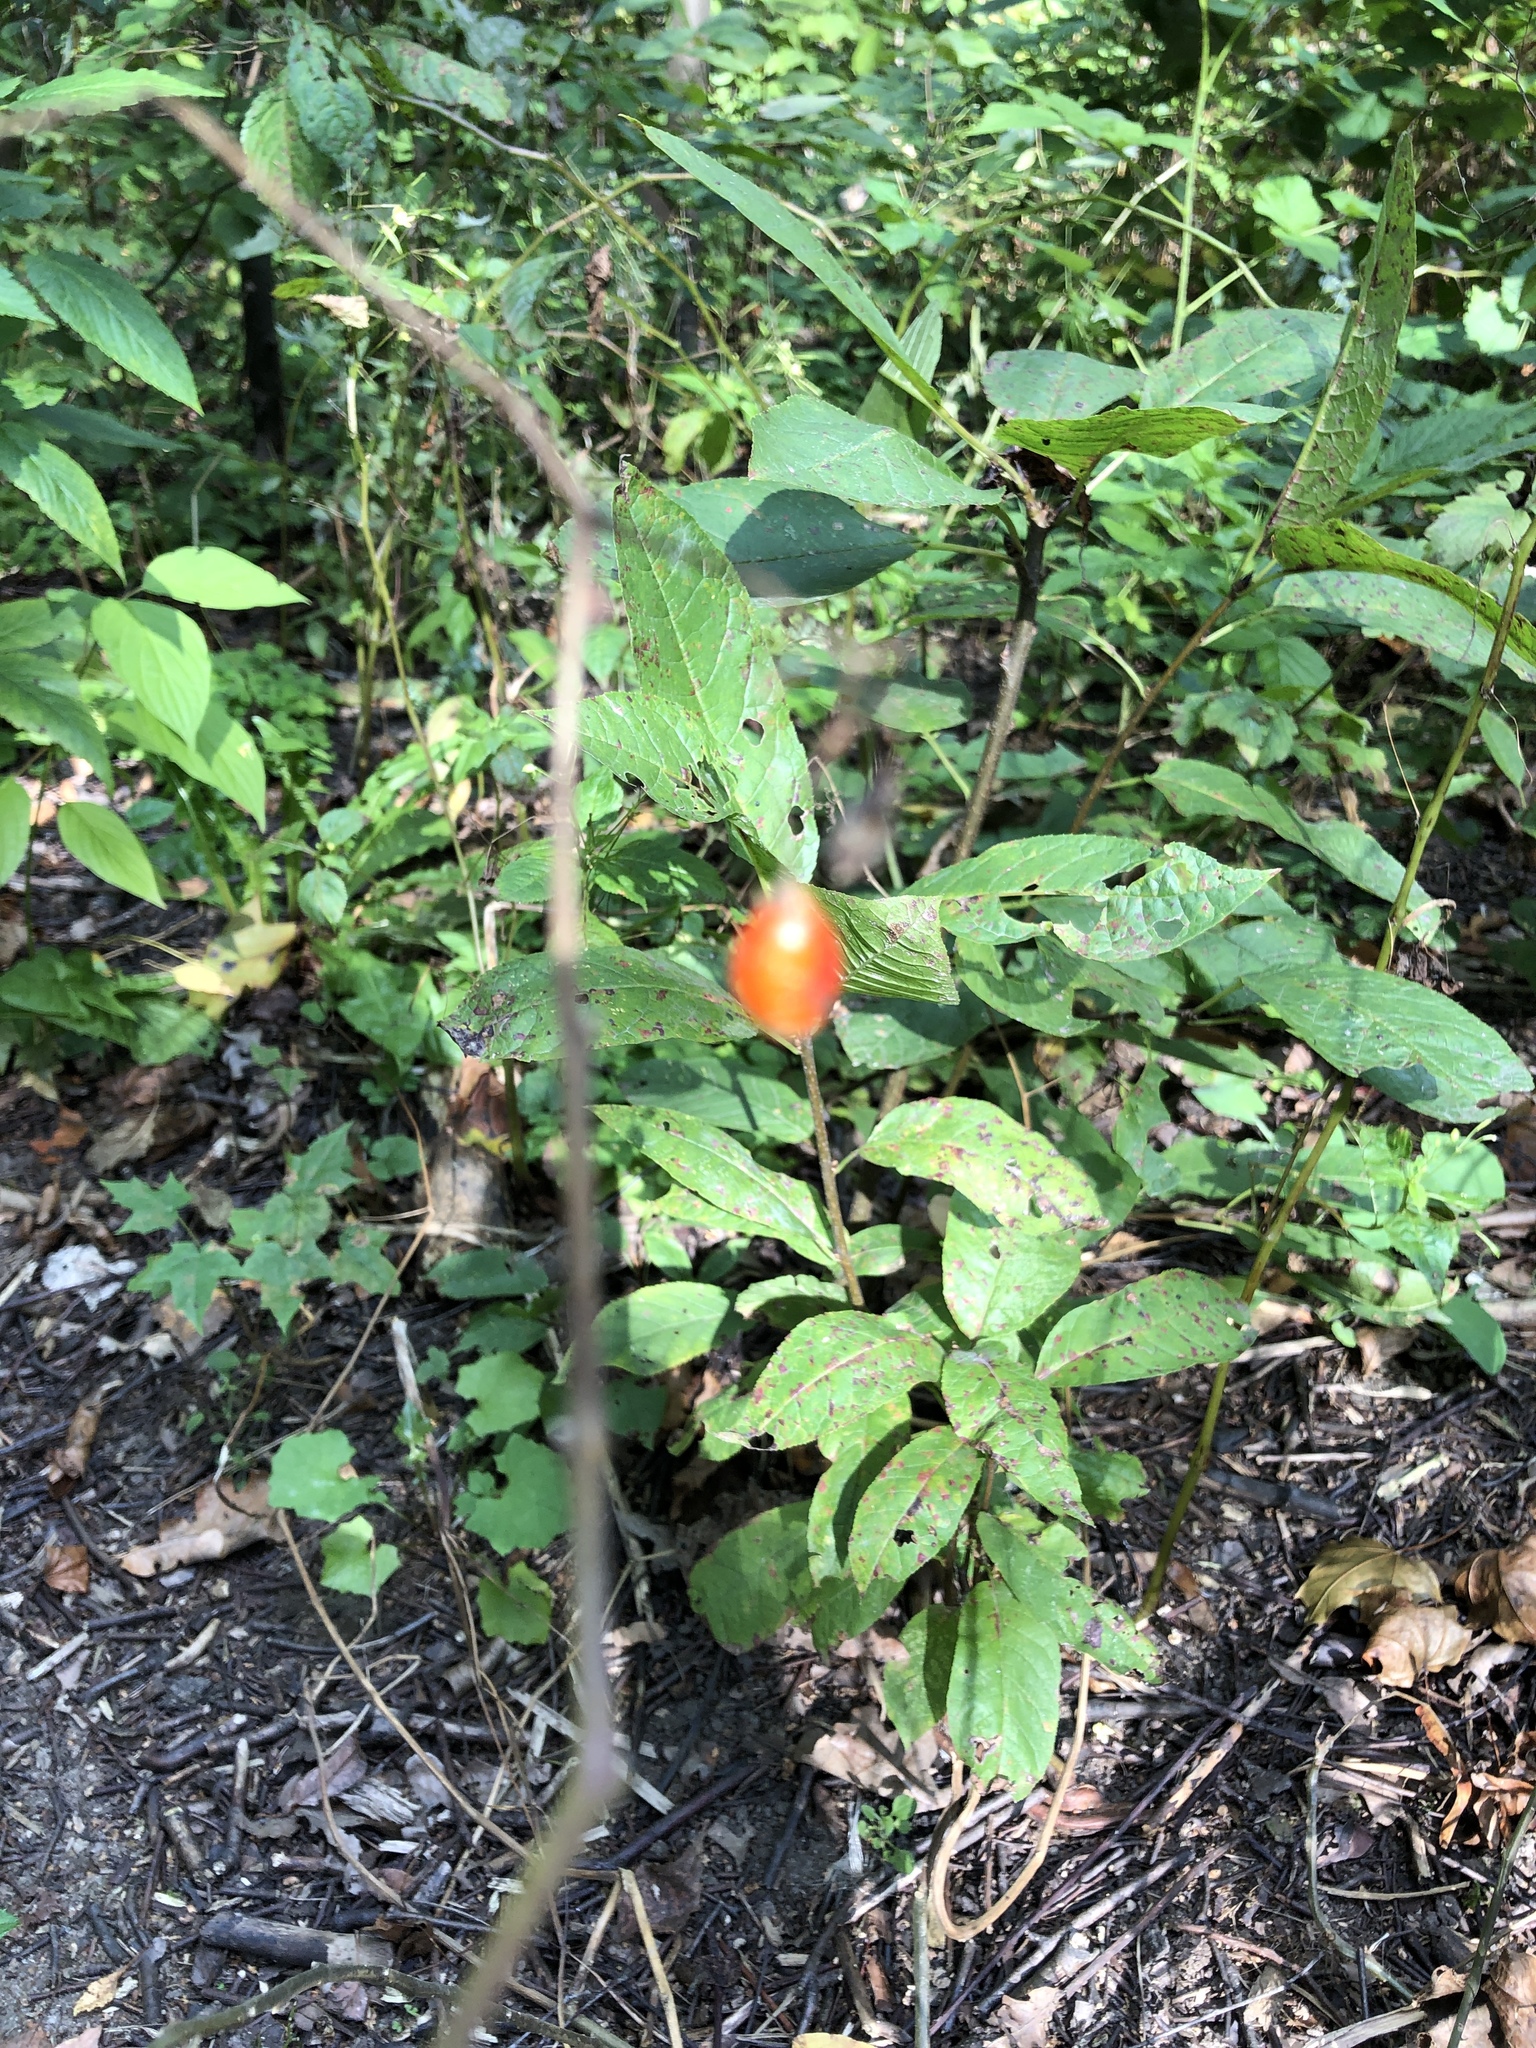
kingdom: Plantae
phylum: Tracheophyta
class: Magnoliopsida
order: Solanales
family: Solanaceae
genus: Solanum
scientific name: Solanum dulcamara
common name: Climbing nightshade
